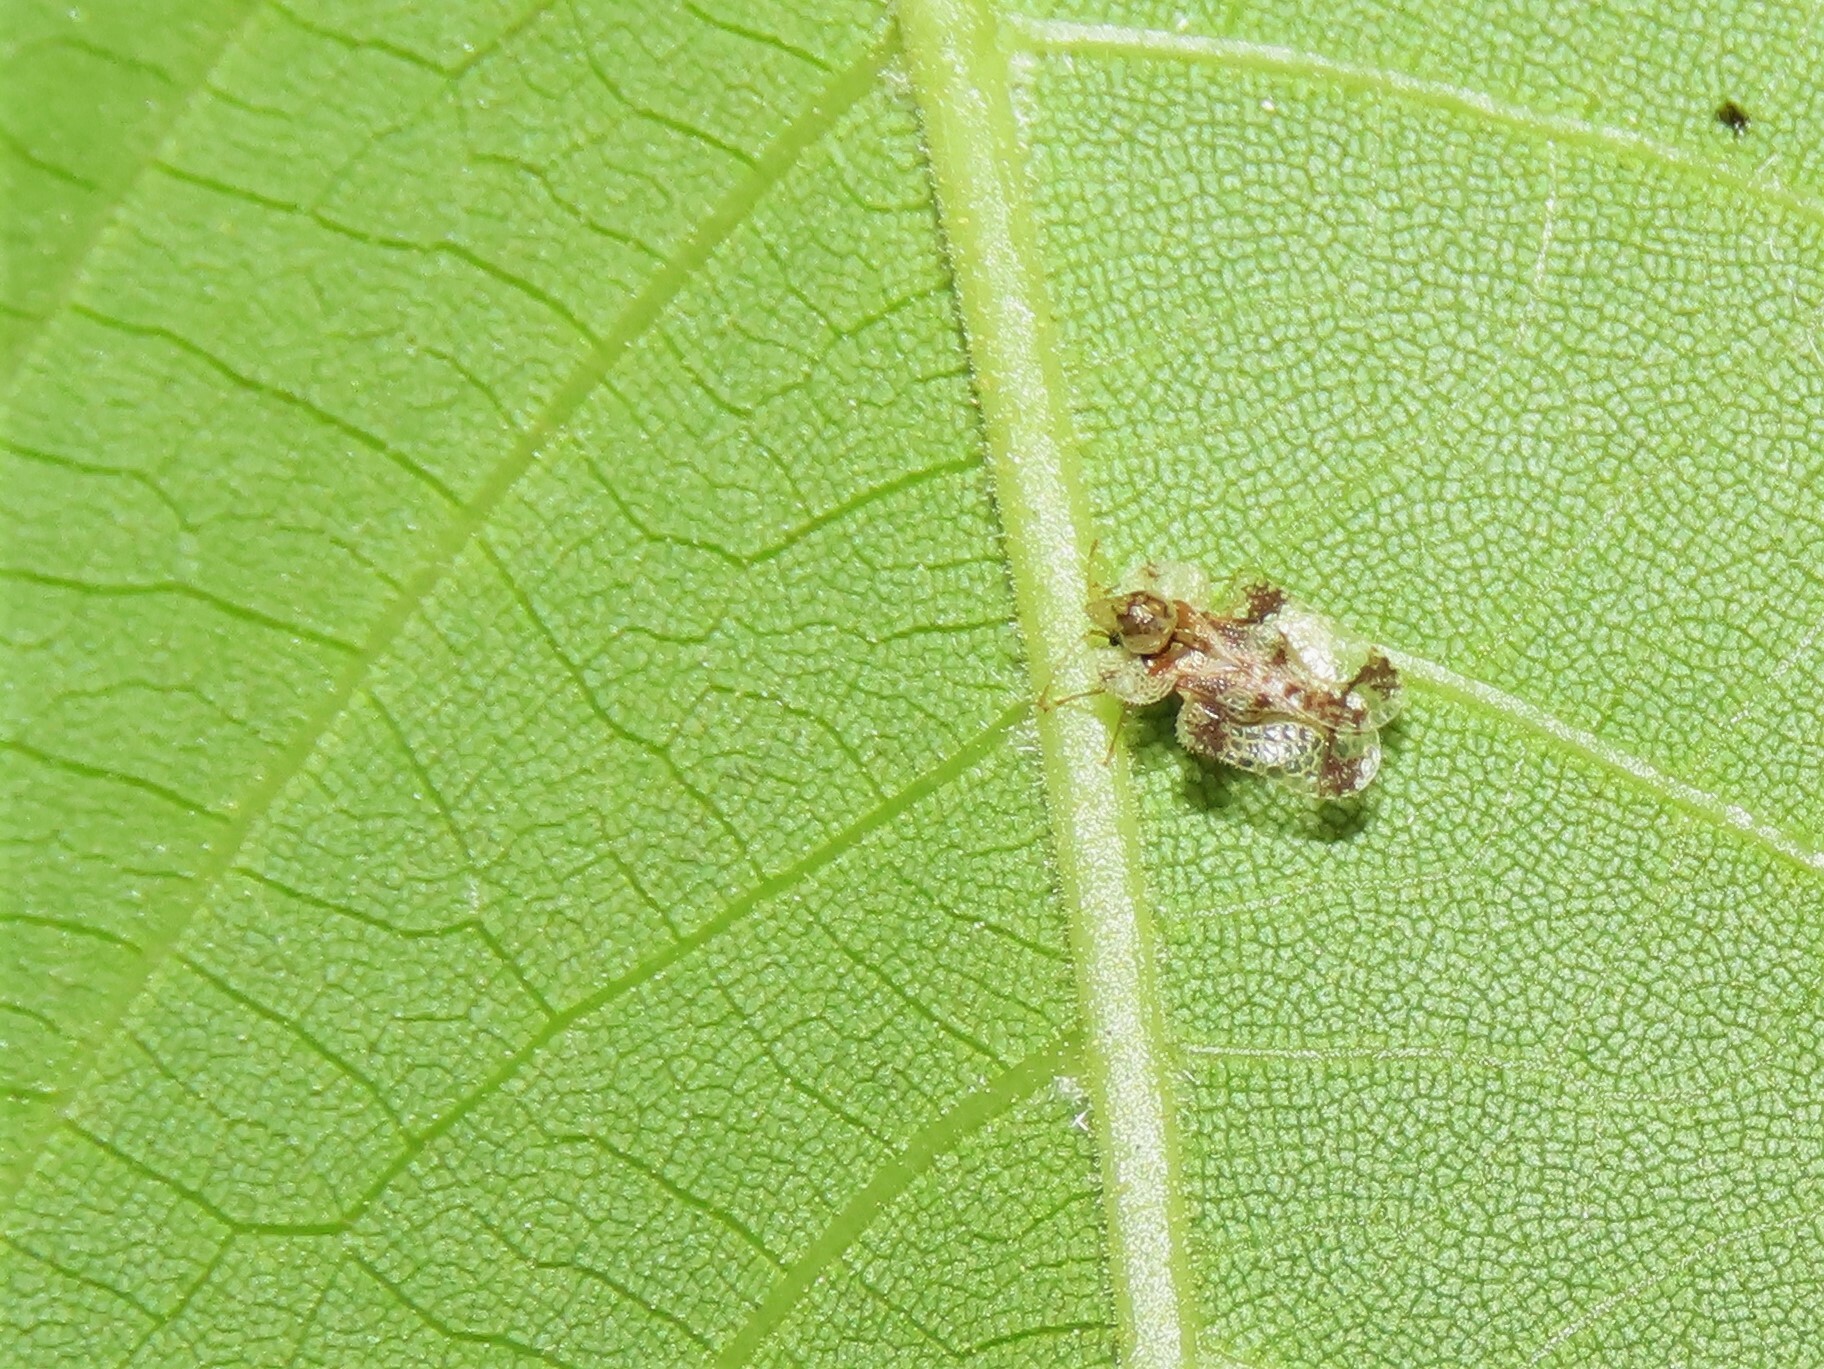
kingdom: Animalia
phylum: Arthropoda
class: Insecta
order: Hemiptera
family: Tingidae
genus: Corythucha
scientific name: Corythucha juglandis
